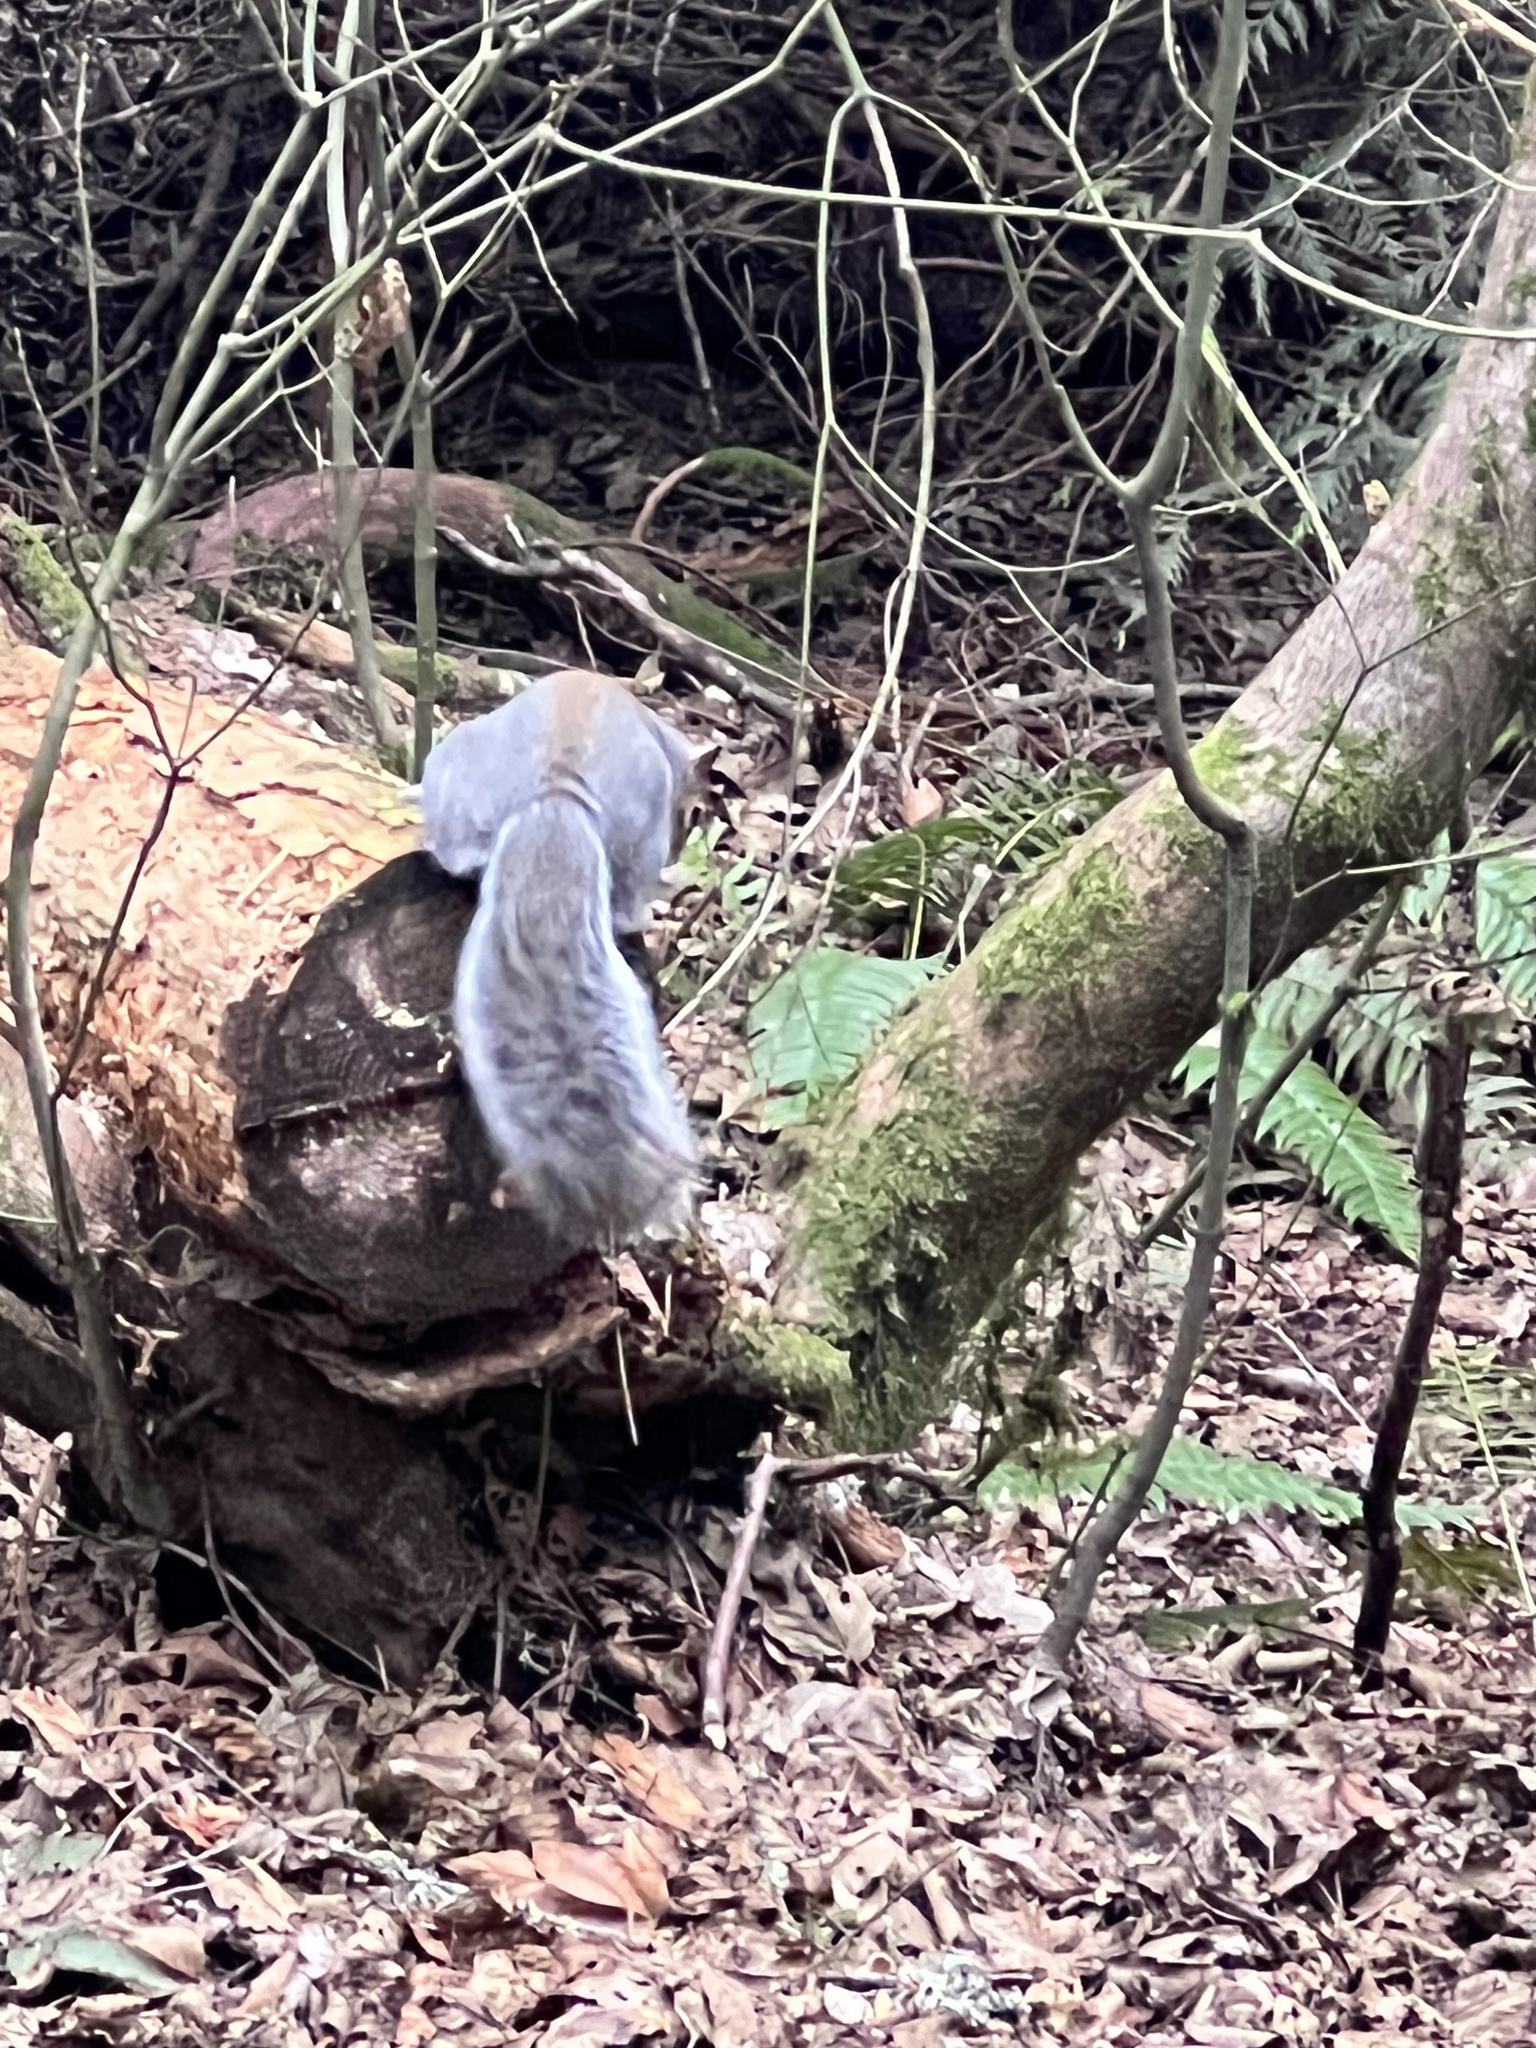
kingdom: Animalia
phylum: Chordata
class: Mammalia
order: Rodentia
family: Sciuridae
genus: Sciurus
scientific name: Sciurus carolinensis
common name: Eastern gray squirrel
